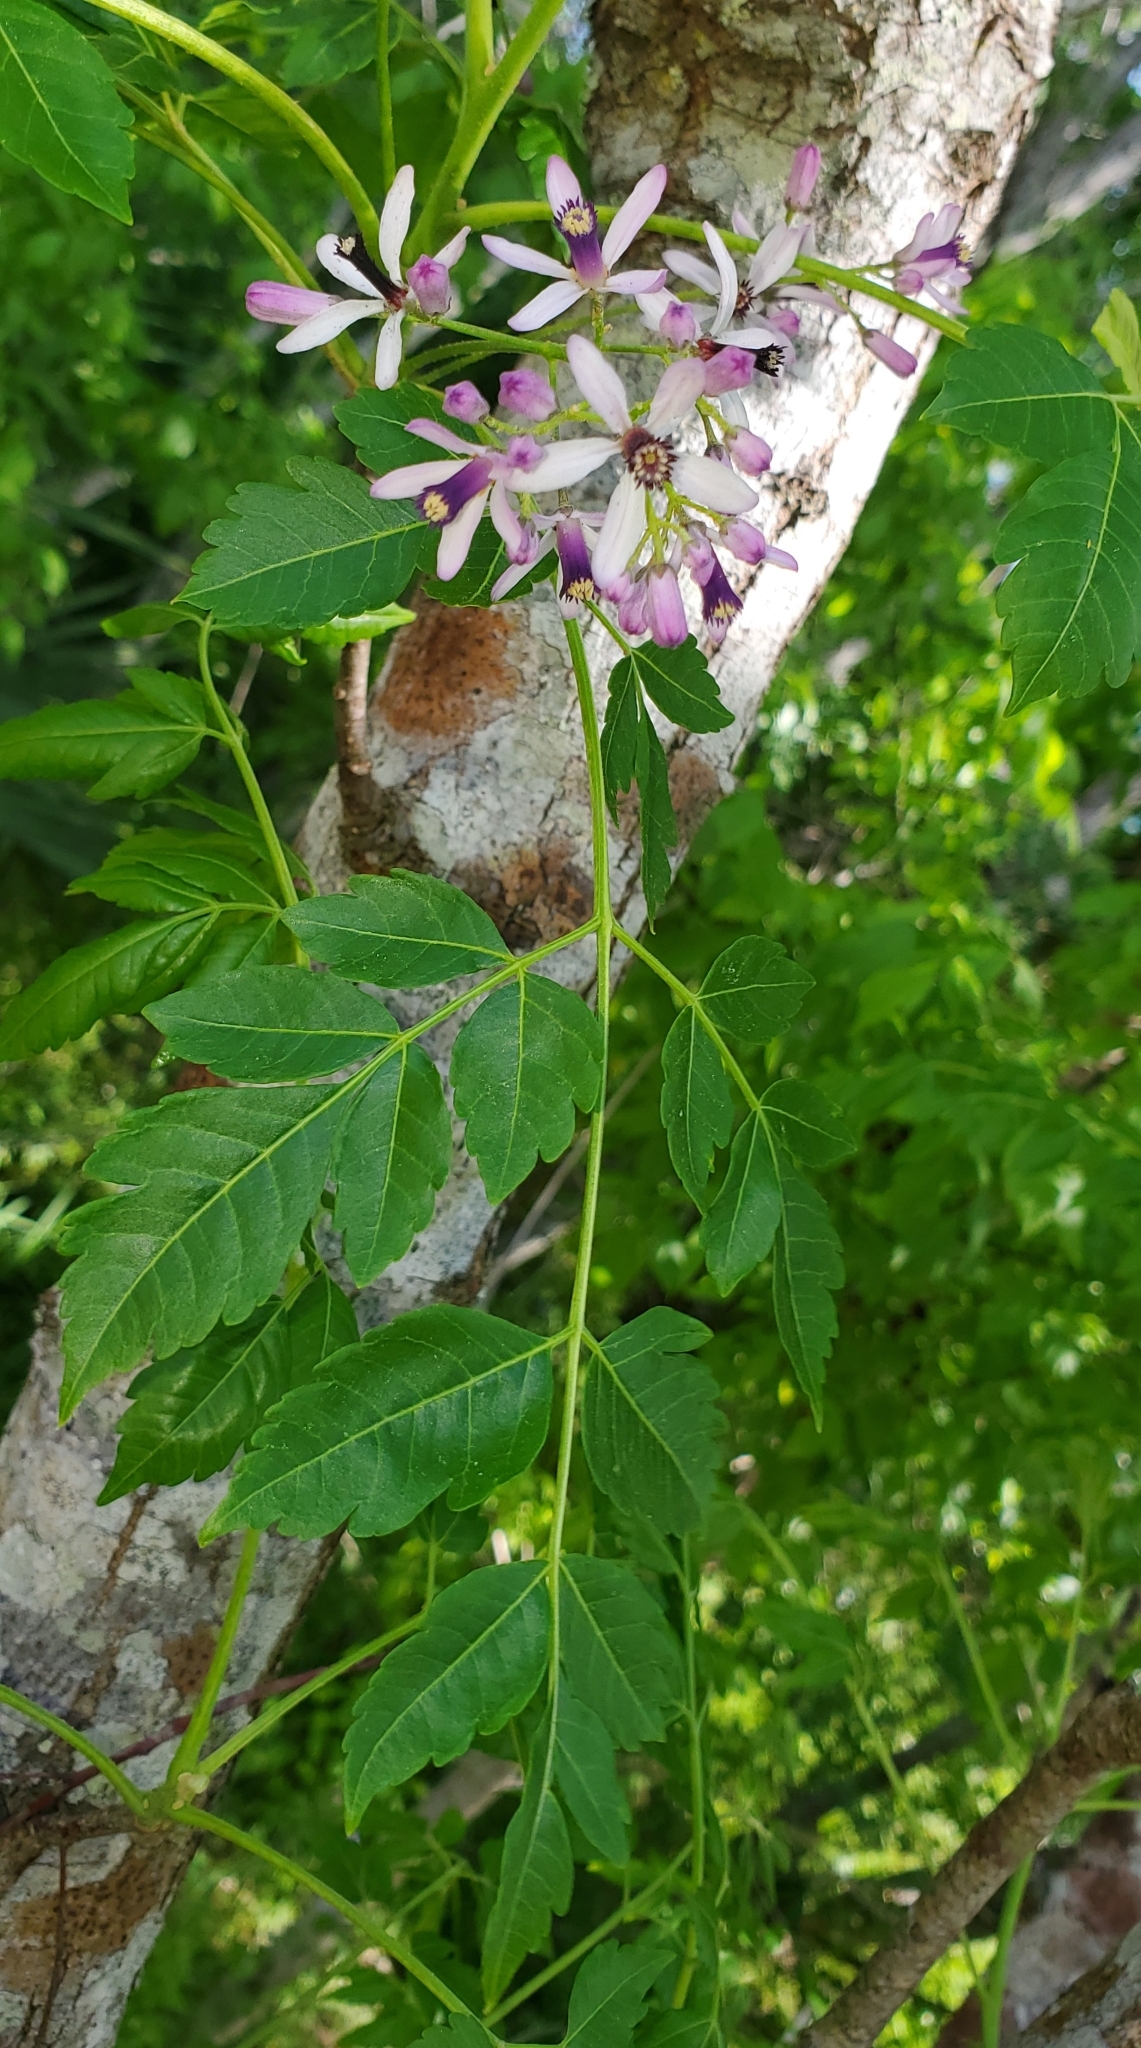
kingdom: Plantae
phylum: Tracheophyta
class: Magnoliopsida
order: Sapindales
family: Meliaceae
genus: Melia
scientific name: Melia azedarach
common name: Chinaberrytree
